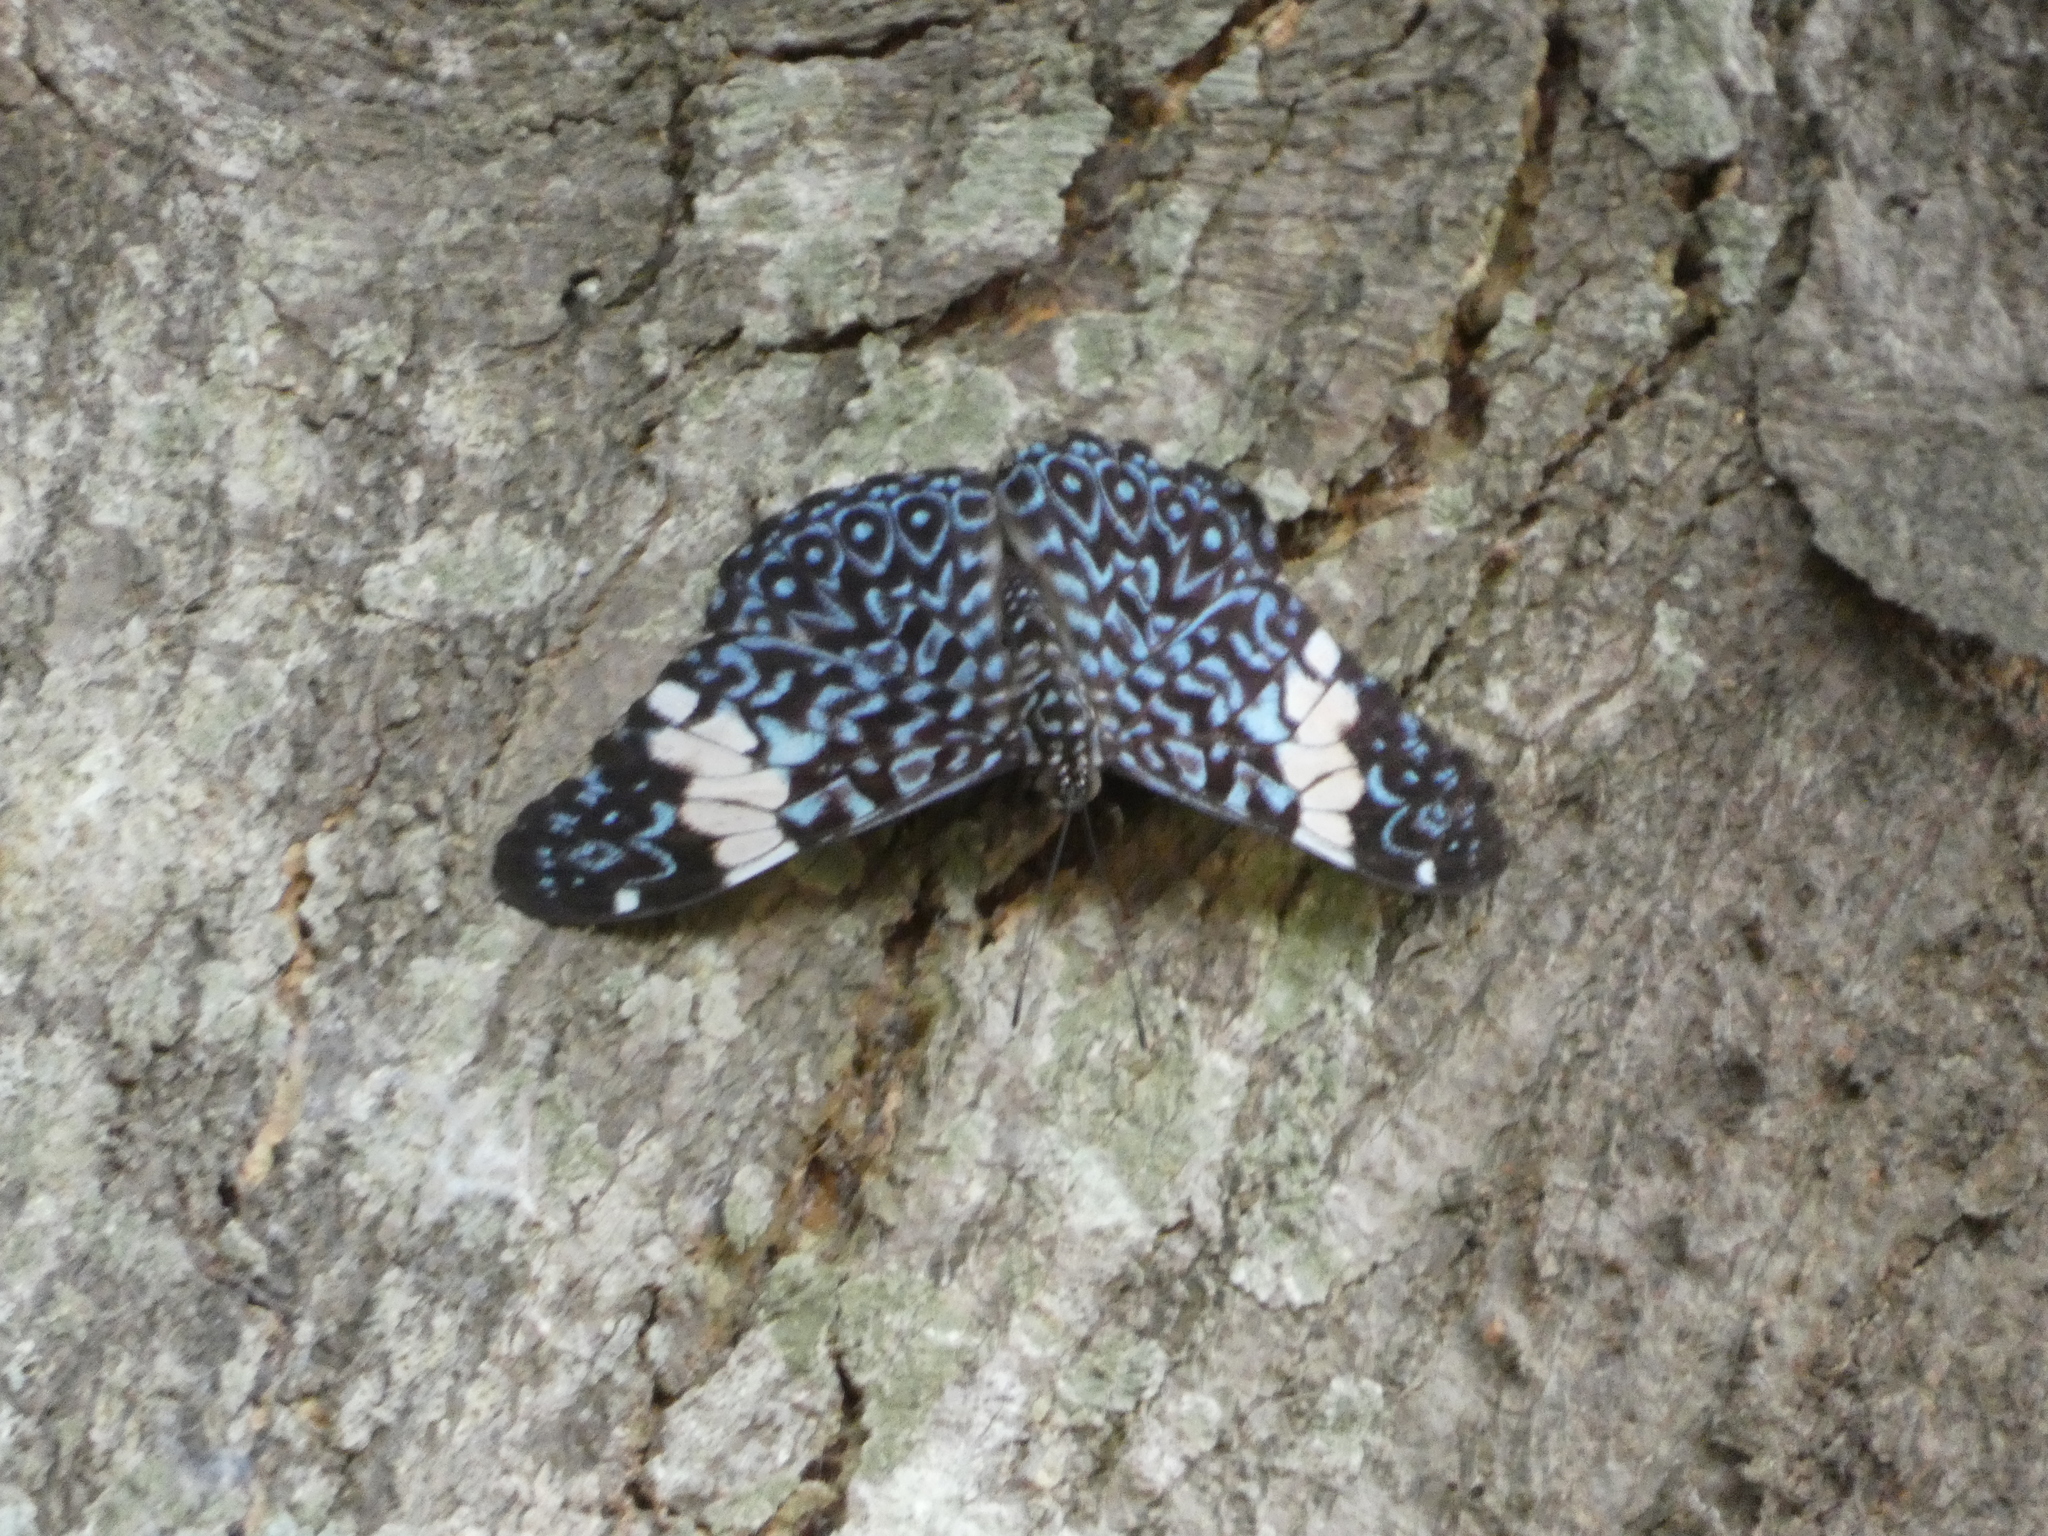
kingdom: Animalia
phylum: Arthropoda
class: Insecta
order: Lepidoptera
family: Nymphalidae
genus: Hamadryas
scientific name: Hamadryas amphinome
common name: Red cracker
